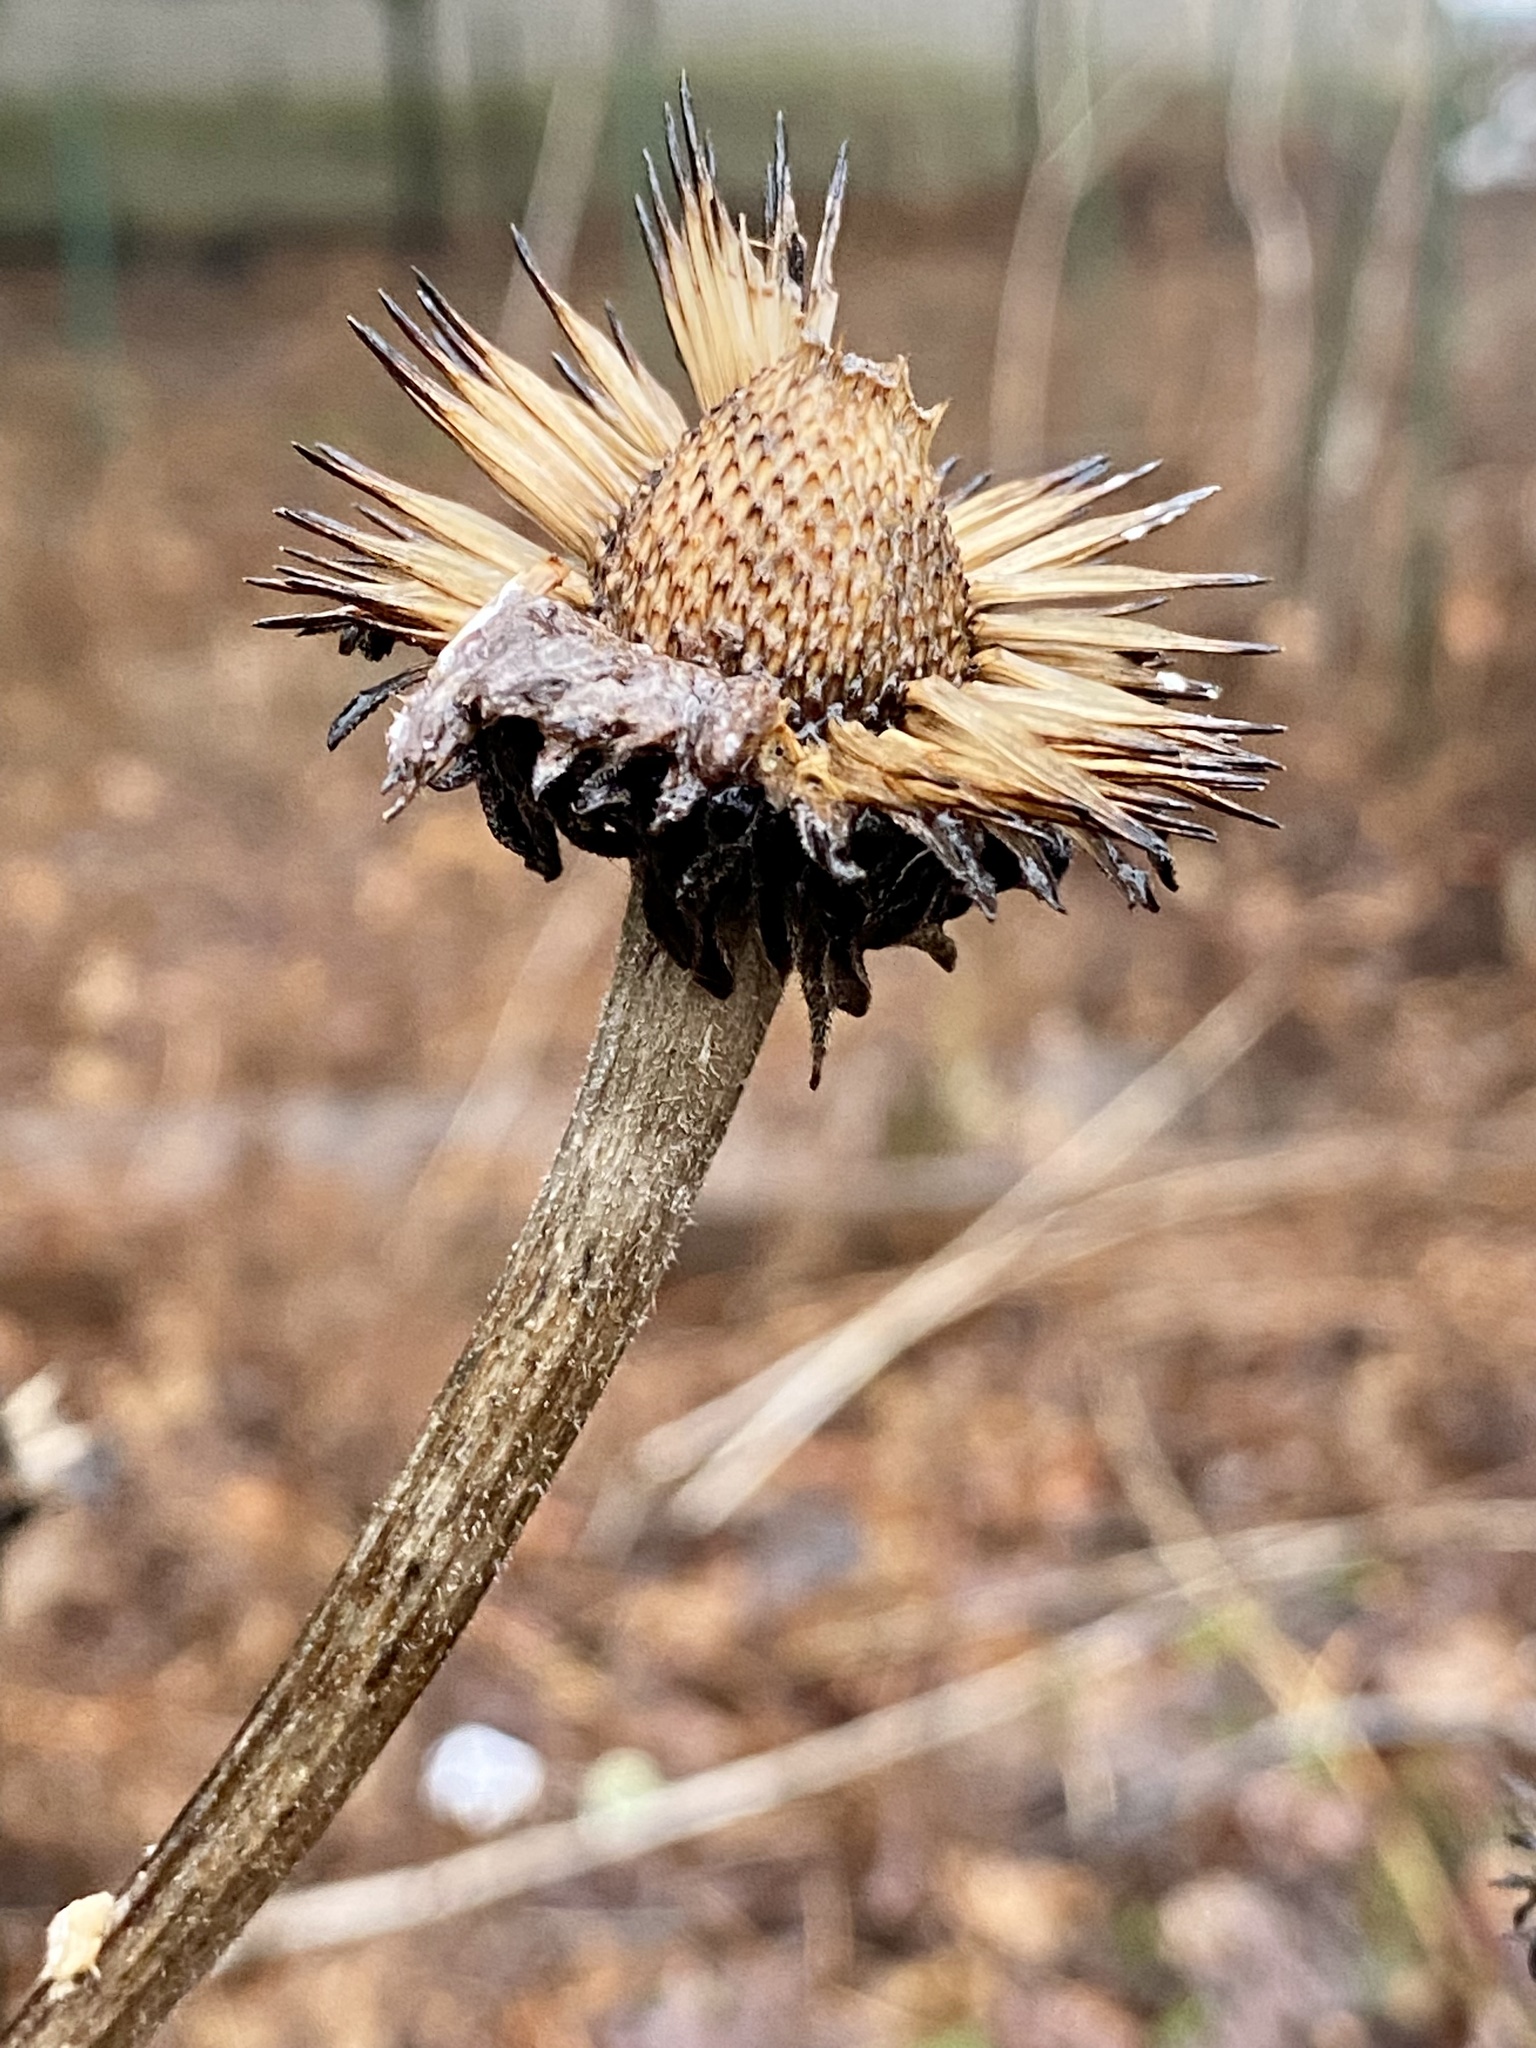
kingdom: Plantae
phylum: Tracheophyta
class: Magnoliopsida
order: Asterales
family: Asteraceae
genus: Echinacea
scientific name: Echinacea purpurea
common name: Broad-leaved purple coneflower
